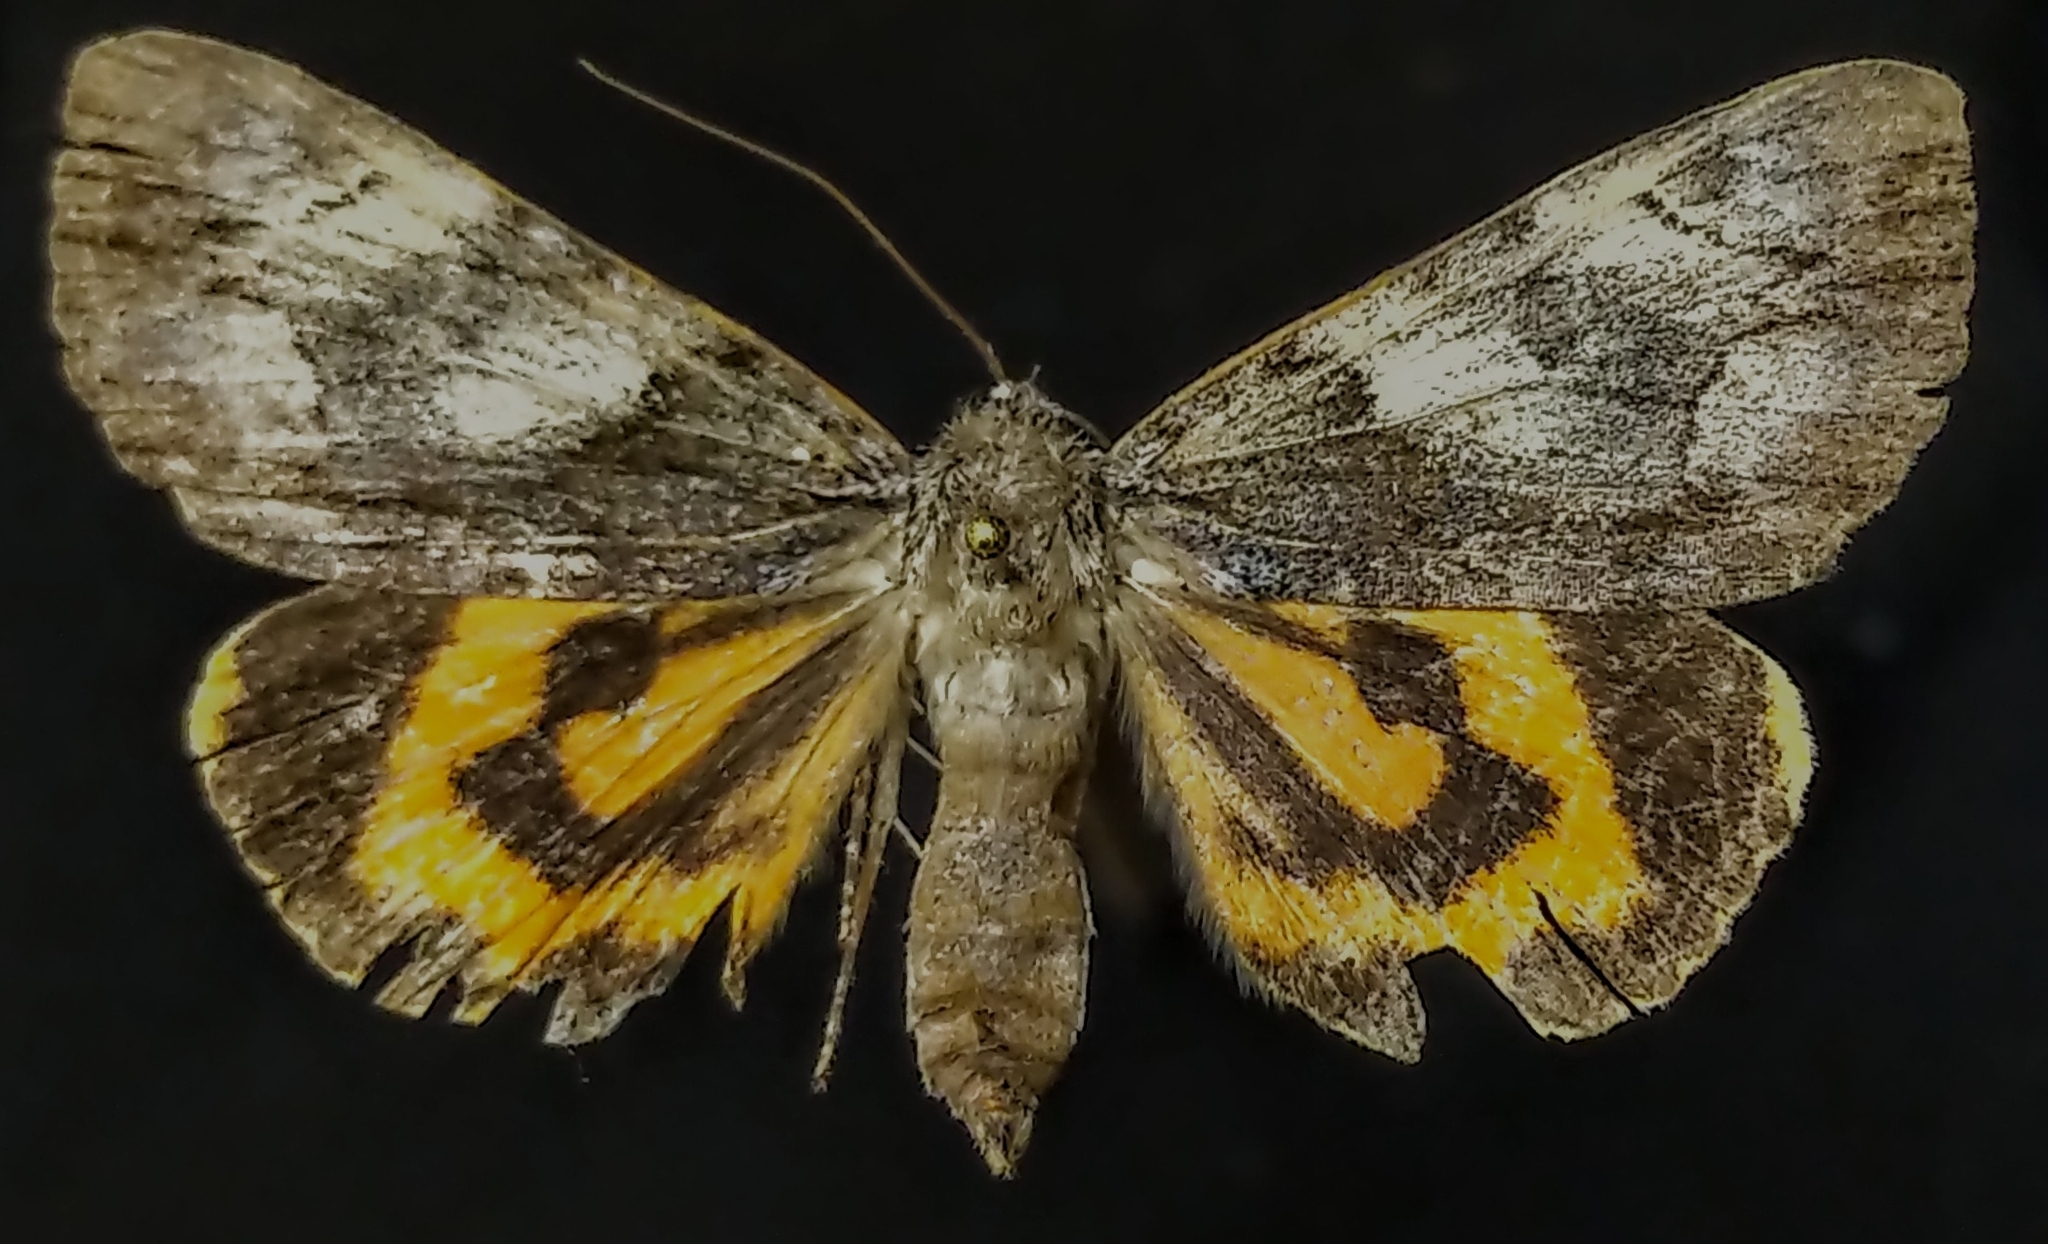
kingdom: Animalia
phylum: Arthropoda
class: Insecta
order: Lepidoptera
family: Erebidae
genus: Catocala
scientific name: Catocala blandula
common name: Charming underwing
